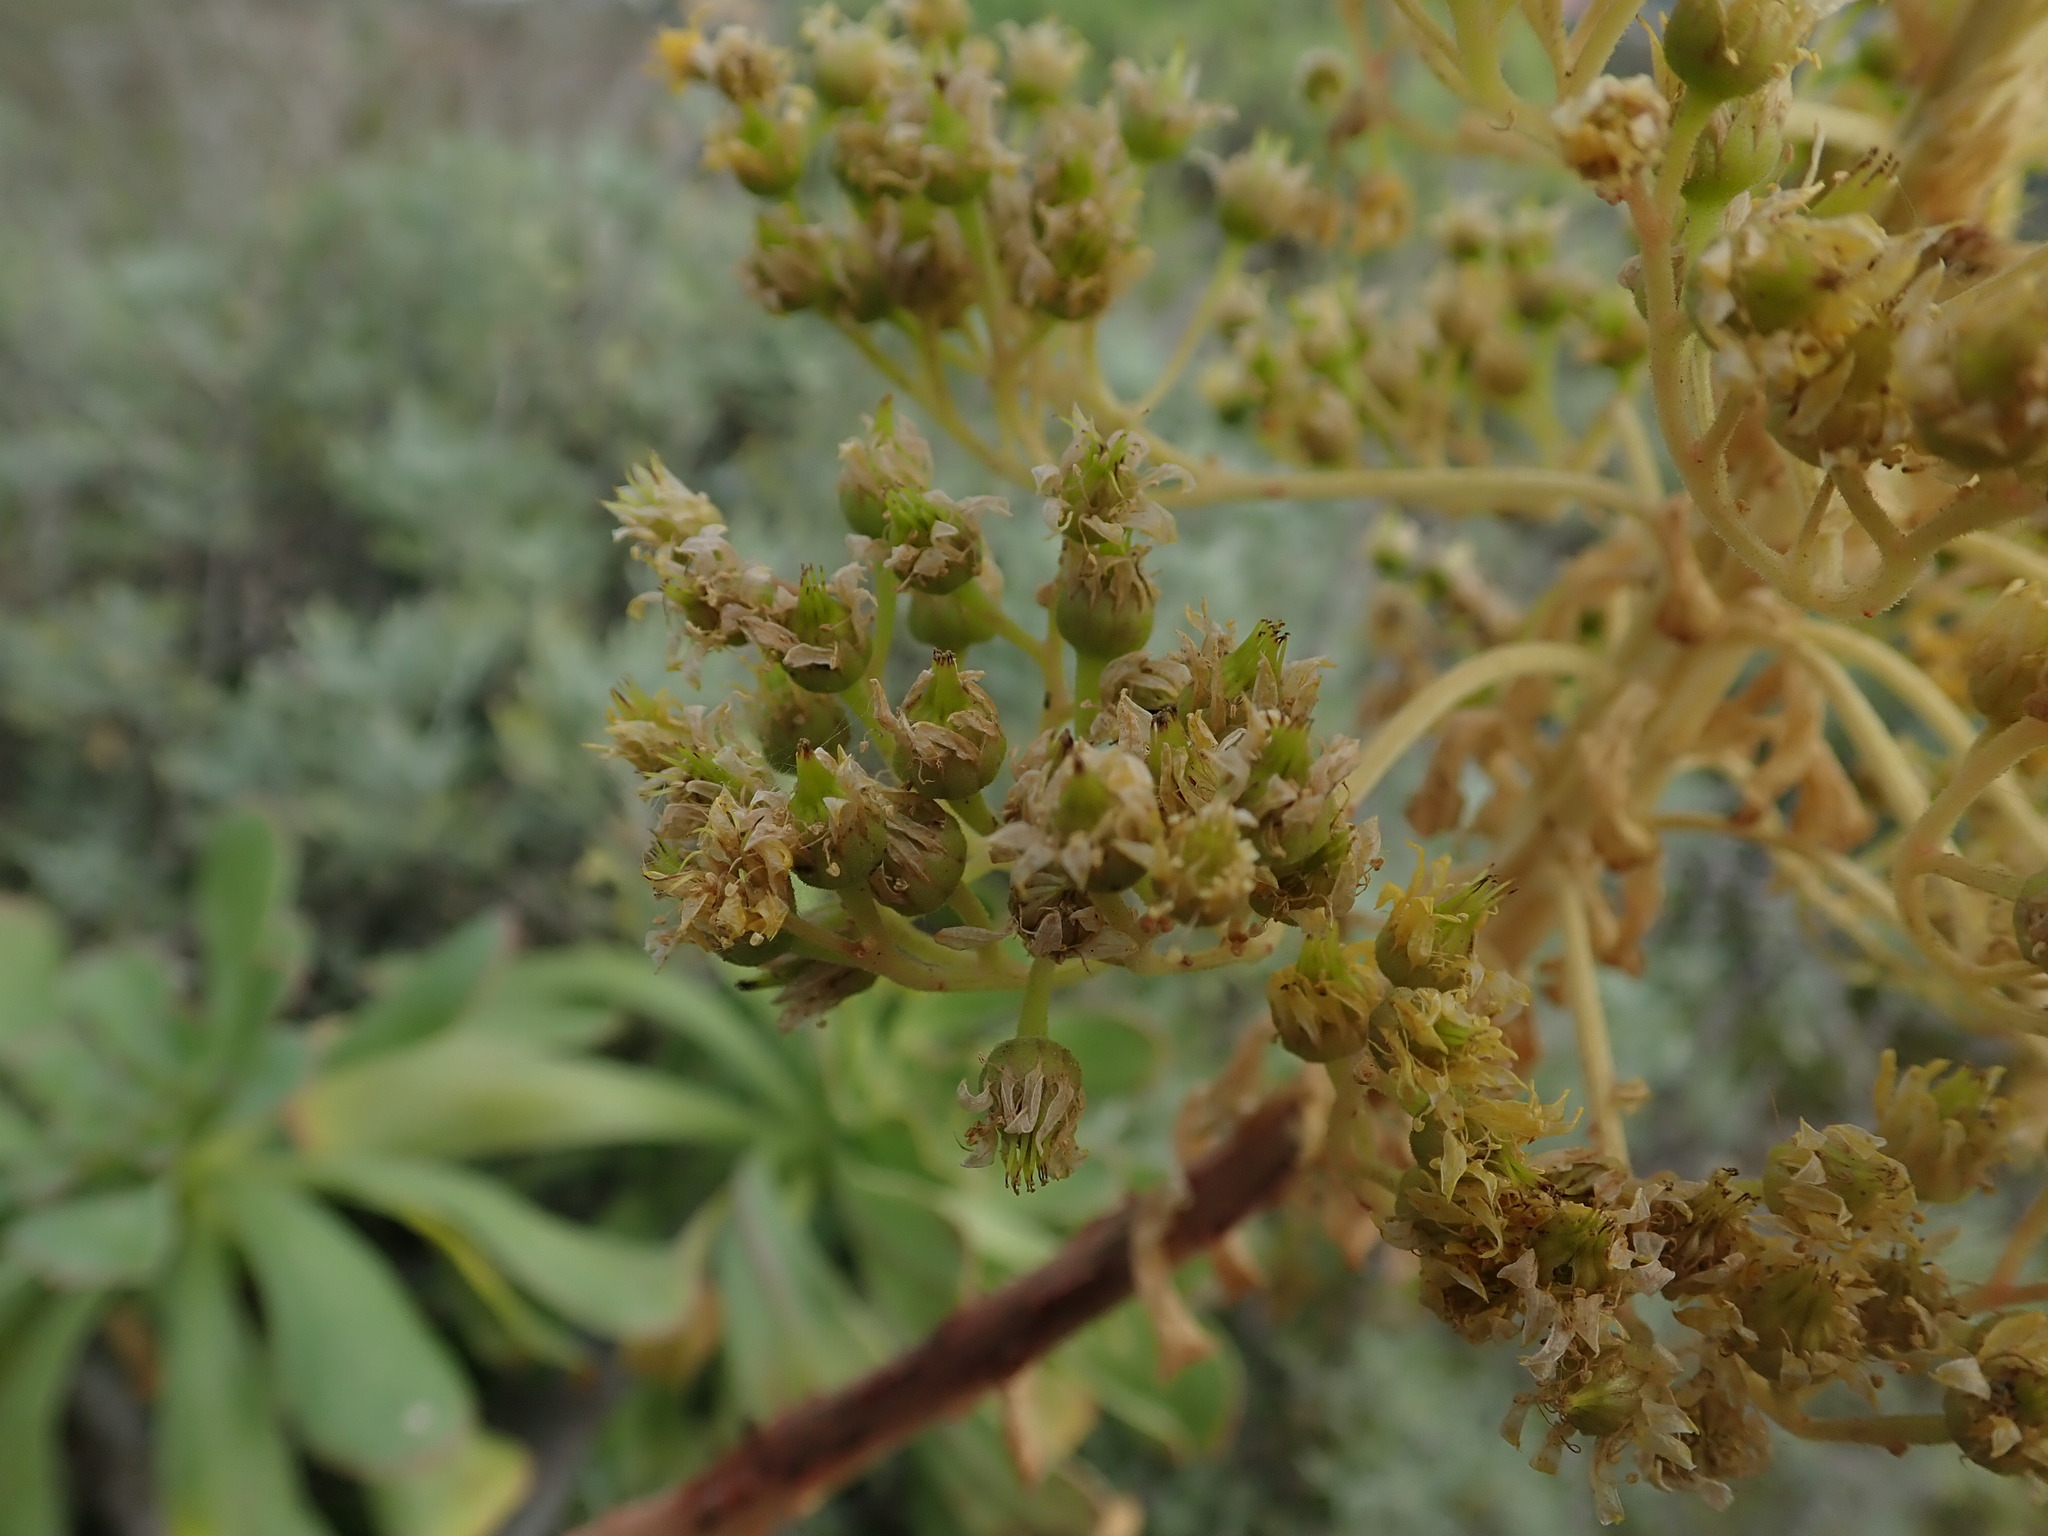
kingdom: Plantae
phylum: Tracheophyta
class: Magnoliopsida
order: Saxifragales
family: Crassulaceae
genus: Aeonium
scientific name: Aeonium arboreum
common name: Tree aeonium
